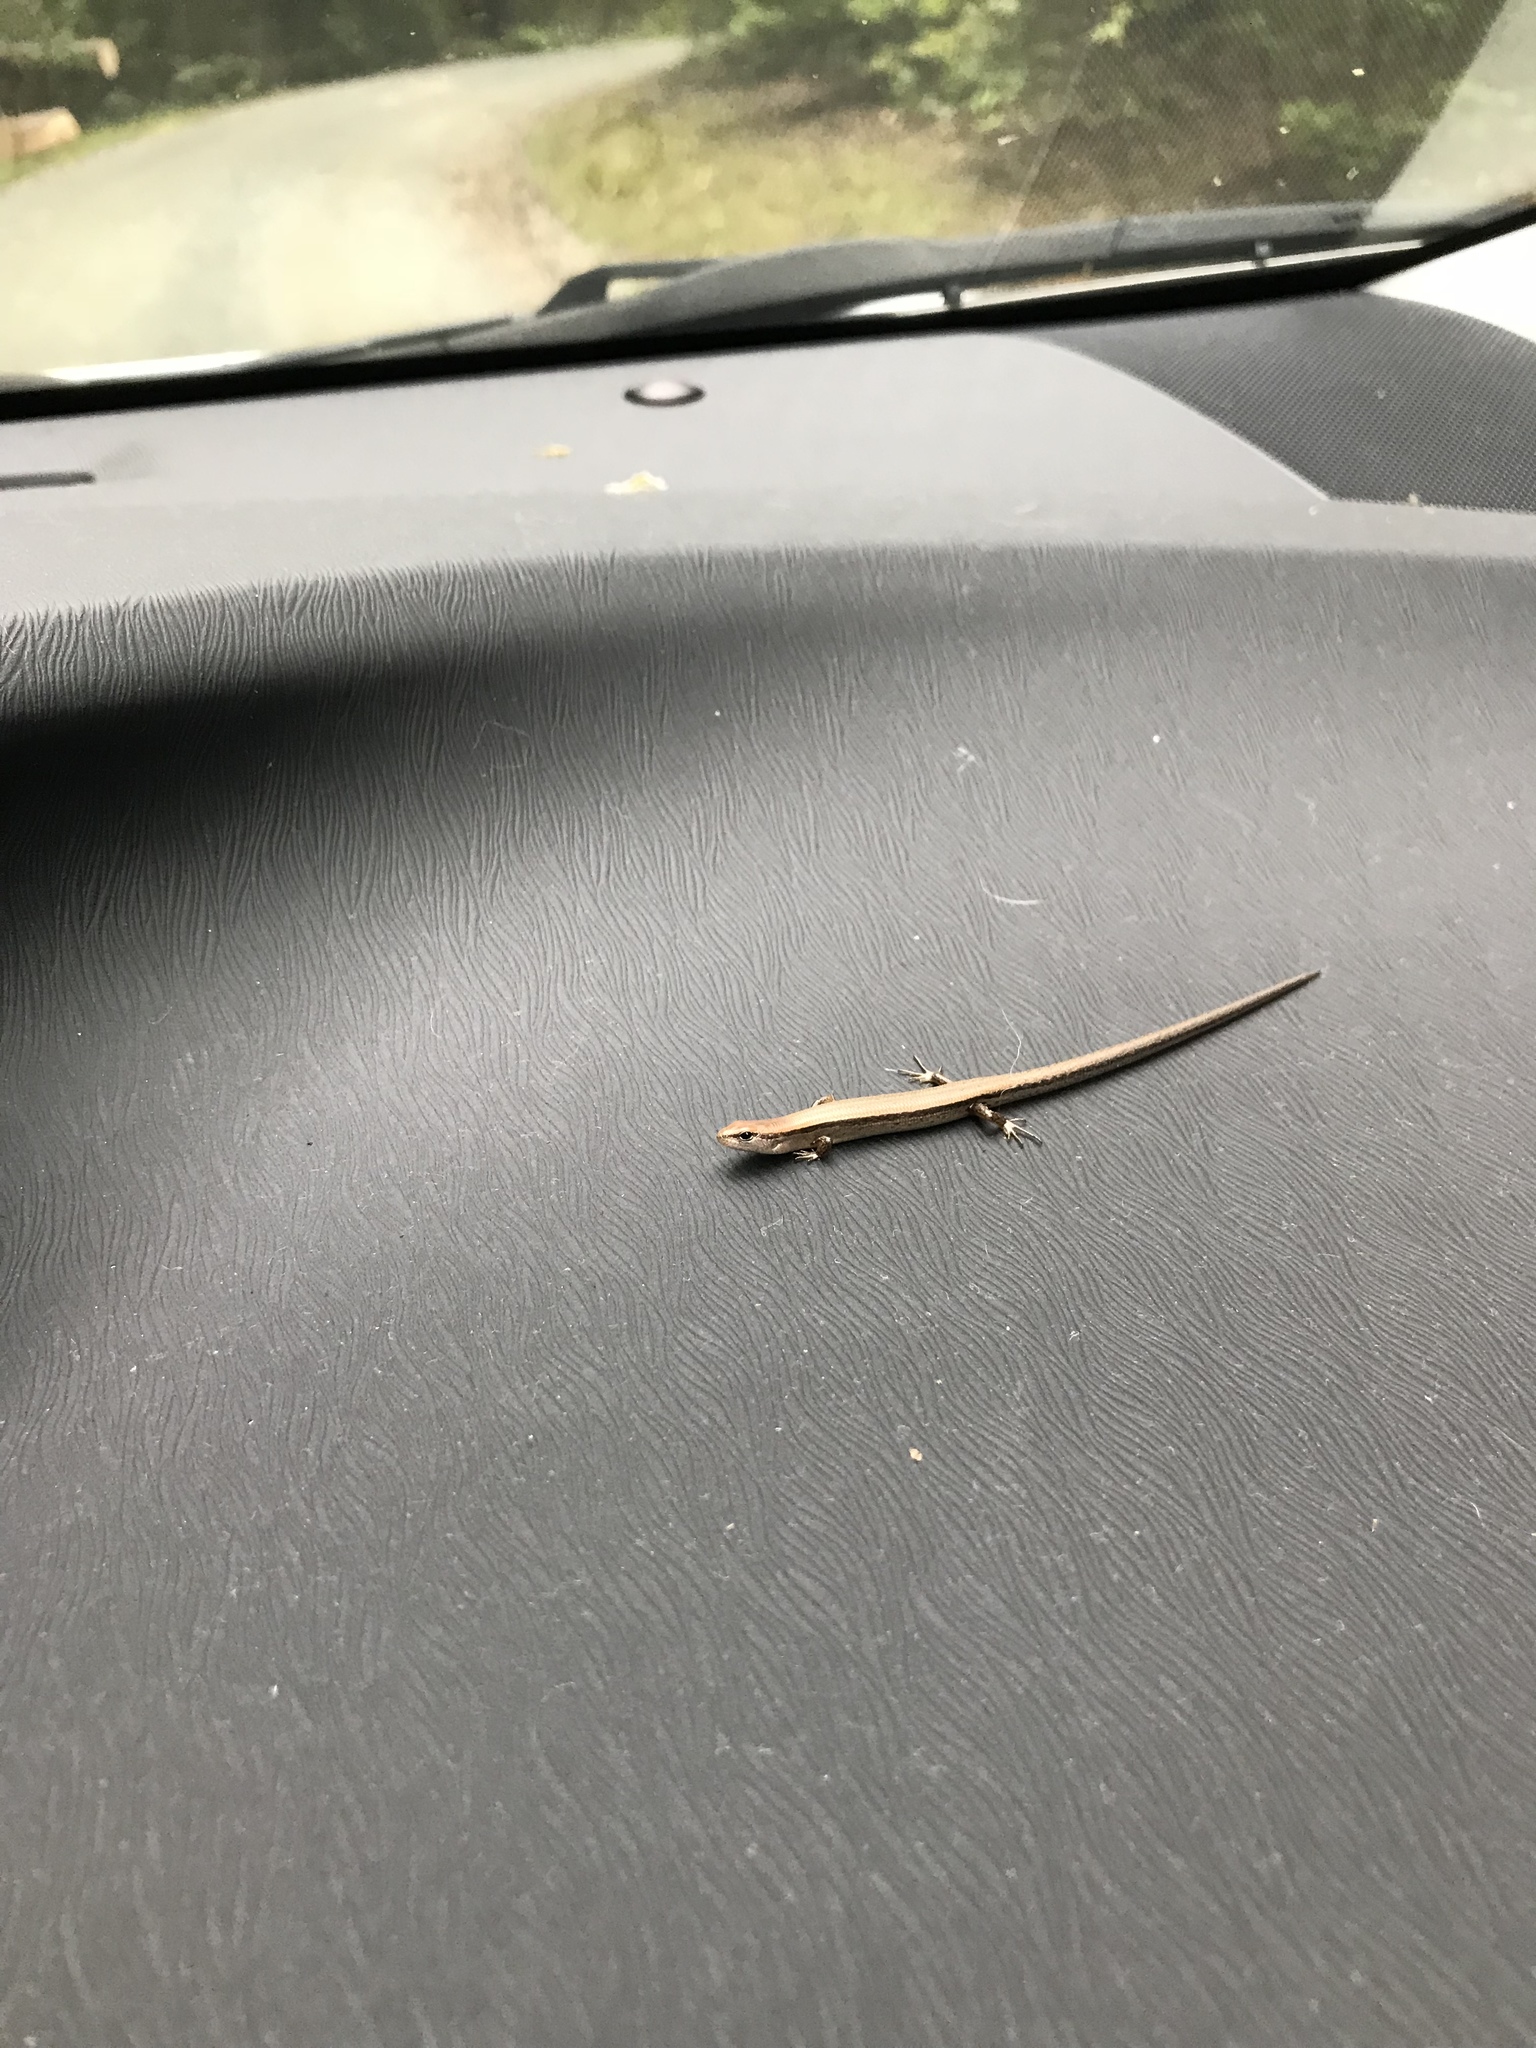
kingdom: Animalia
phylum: Chordata
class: Squamata
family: Scincidae
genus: Scincella
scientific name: Scincella lateralis
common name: Ground skink
